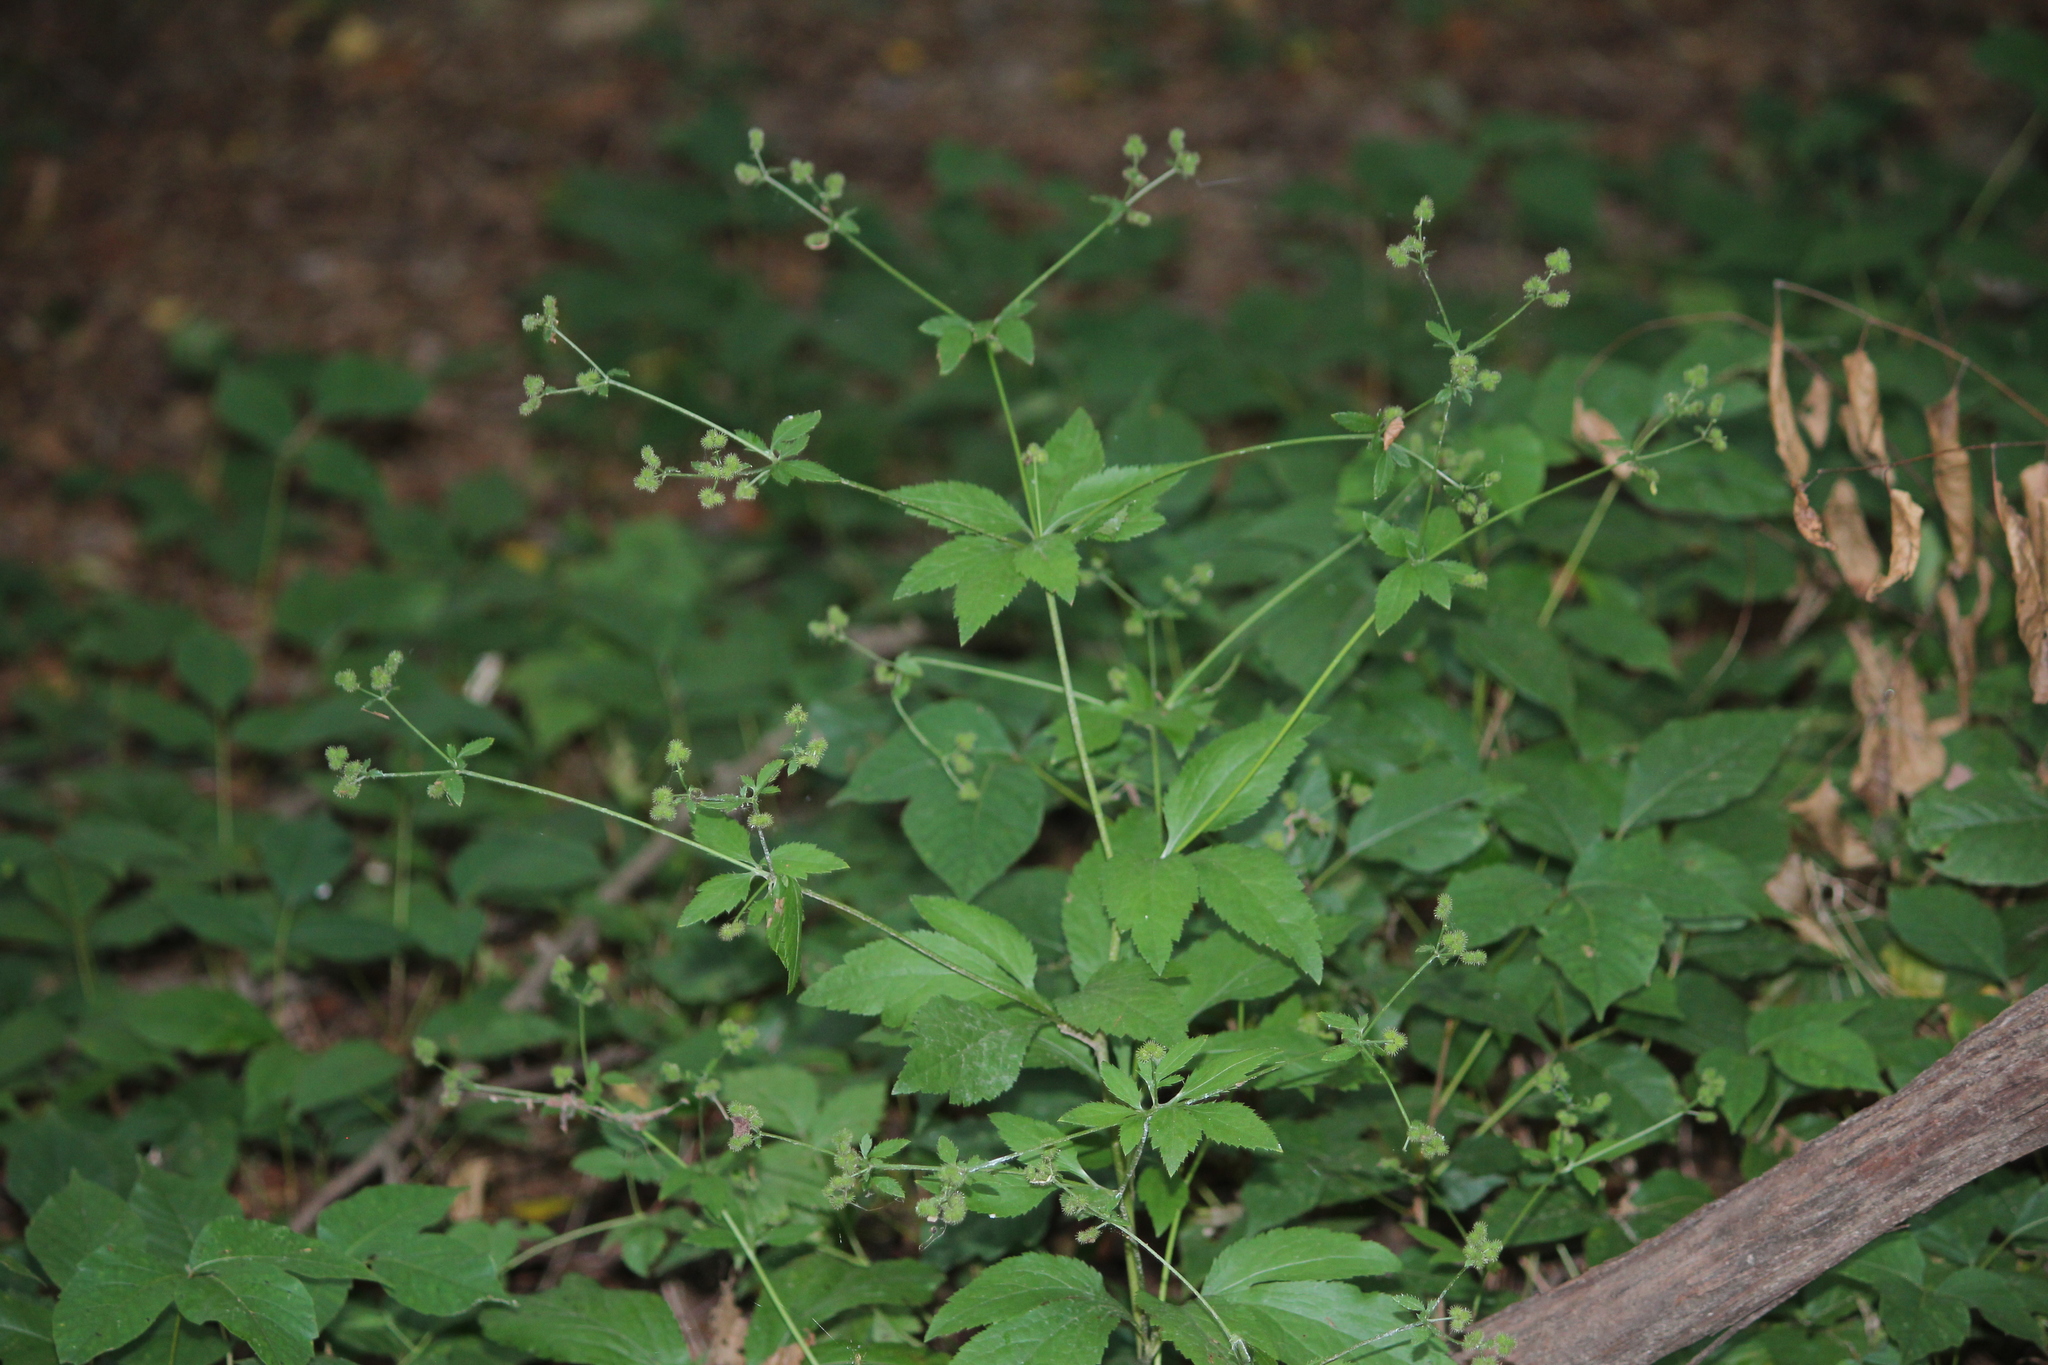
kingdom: Plantae
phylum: Tracheophyta
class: Magnoliopsida
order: Apiales
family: Apiaceae
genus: Sanicula
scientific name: Sanicula canadensis
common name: Canada sanicle
